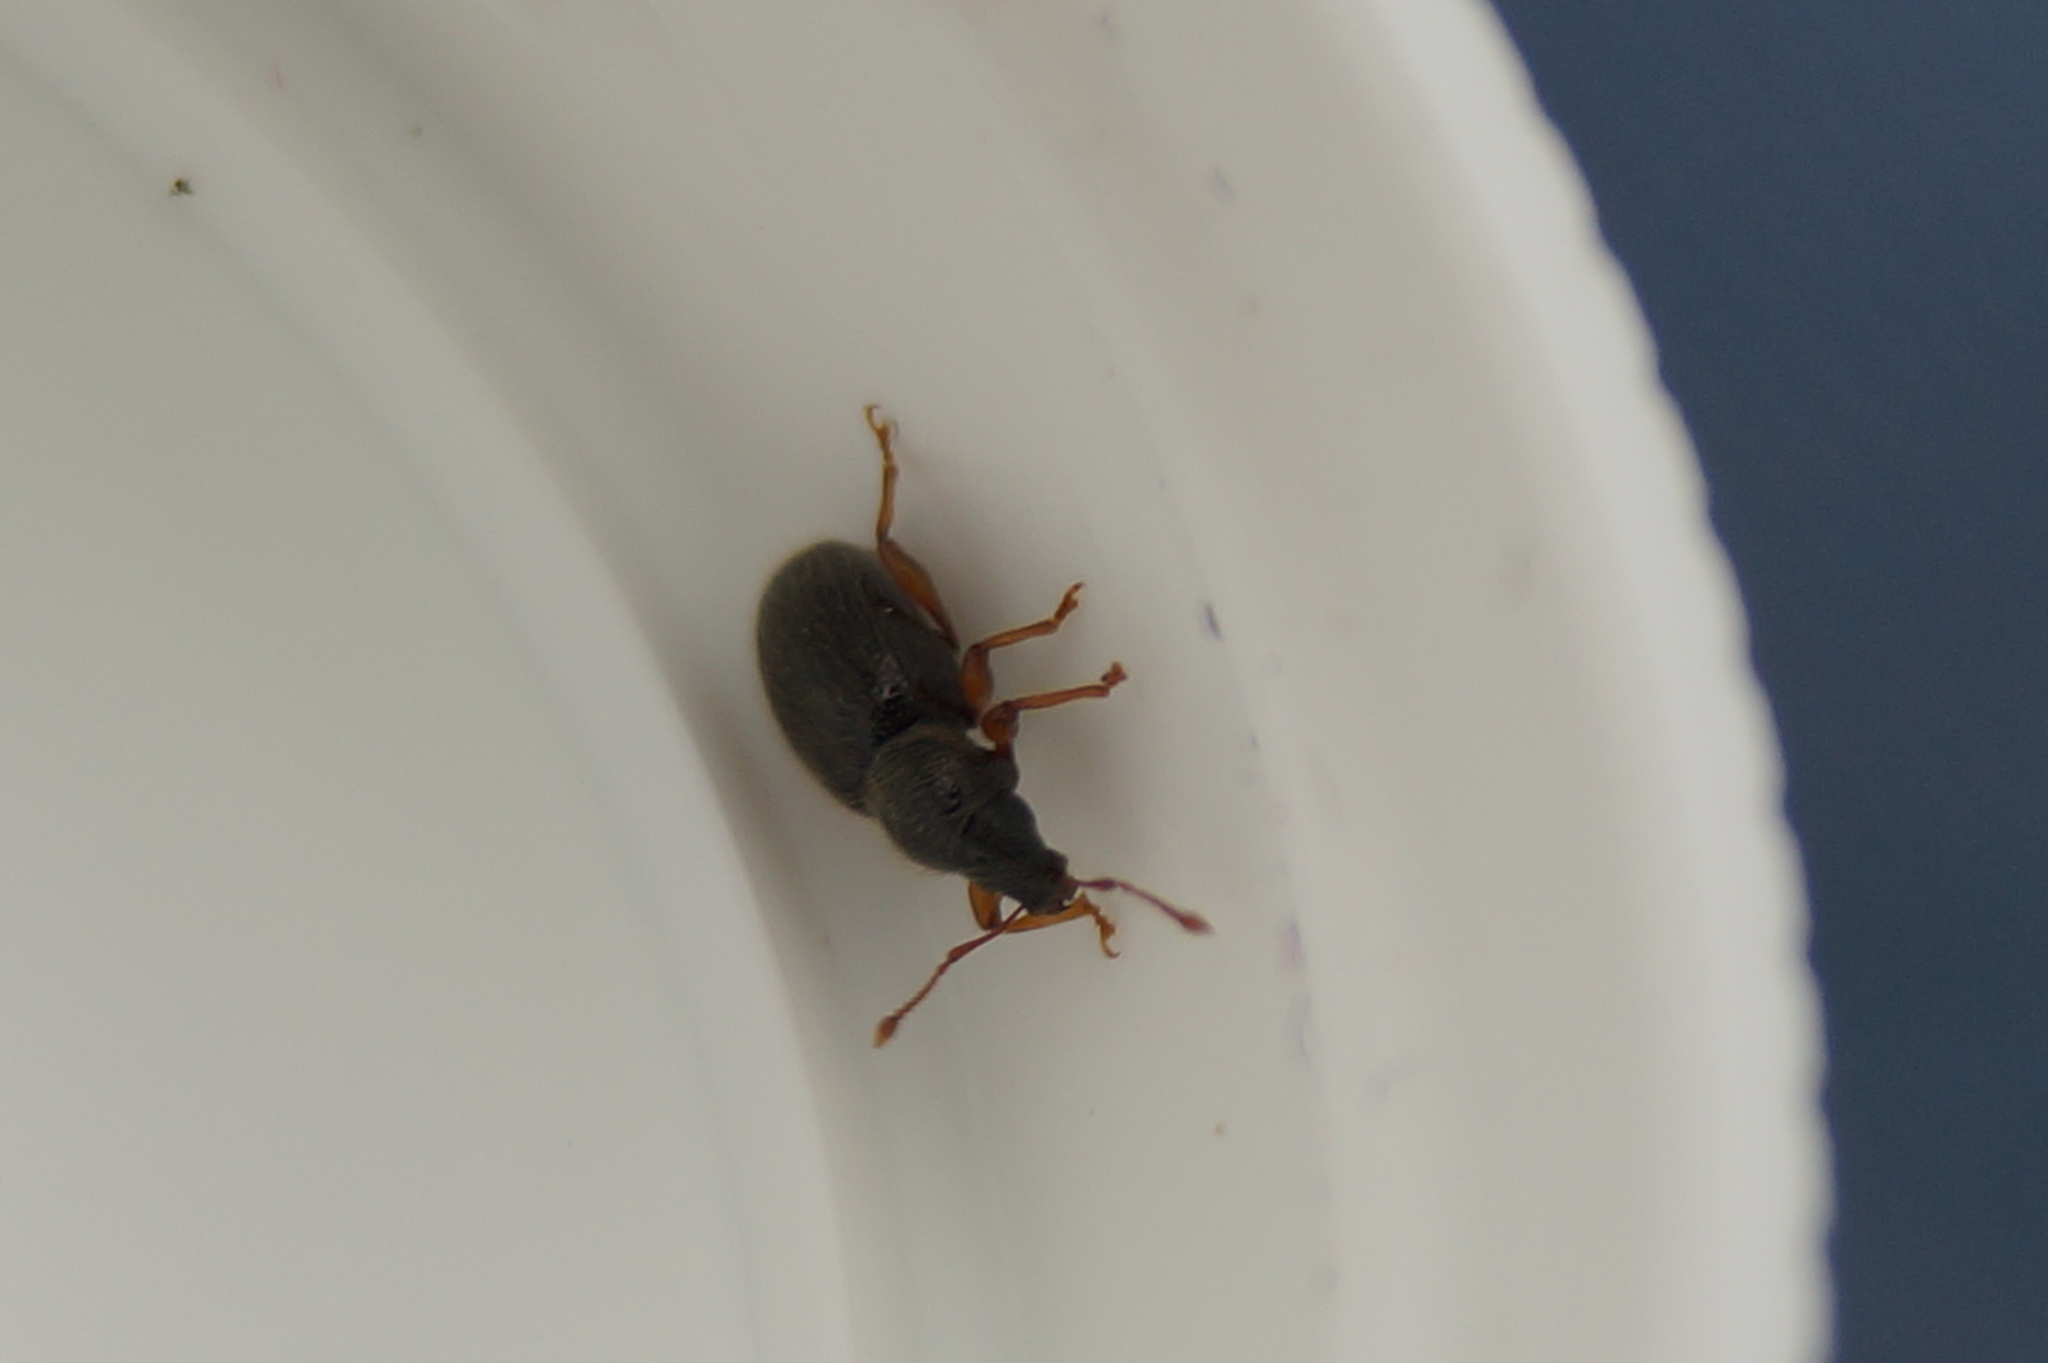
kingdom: Animalia
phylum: Arthropoda
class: Insecta
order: Coleoptera
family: Curculionidae
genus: Exomias
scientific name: Exomias pellucidus
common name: Hairy spider weevil
